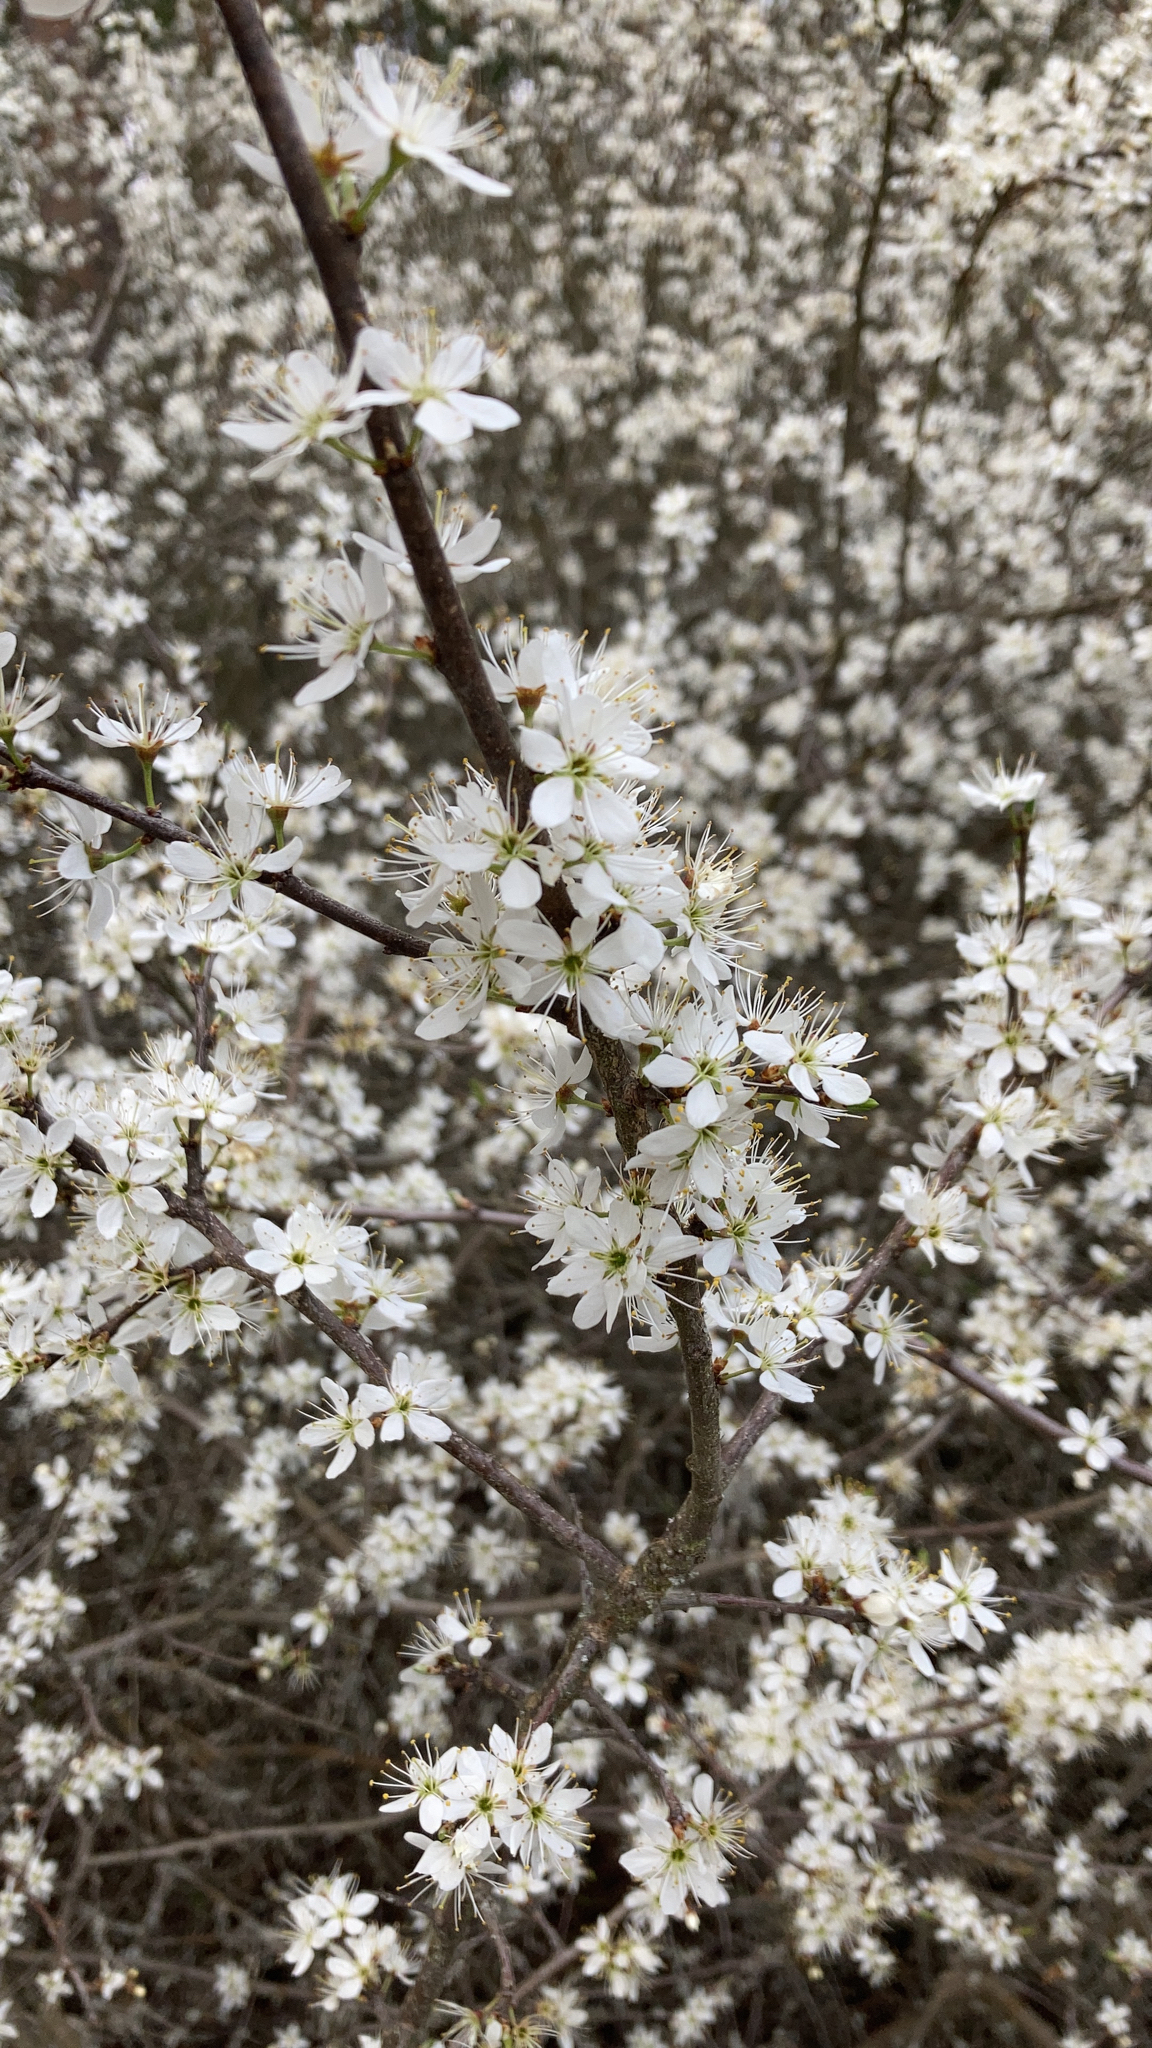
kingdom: Plantae
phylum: Tracheophyta
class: Magnoliopsida
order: Rosales
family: Rosaceae
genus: Prunus
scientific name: Prunus spinosa
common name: Blackthorn
